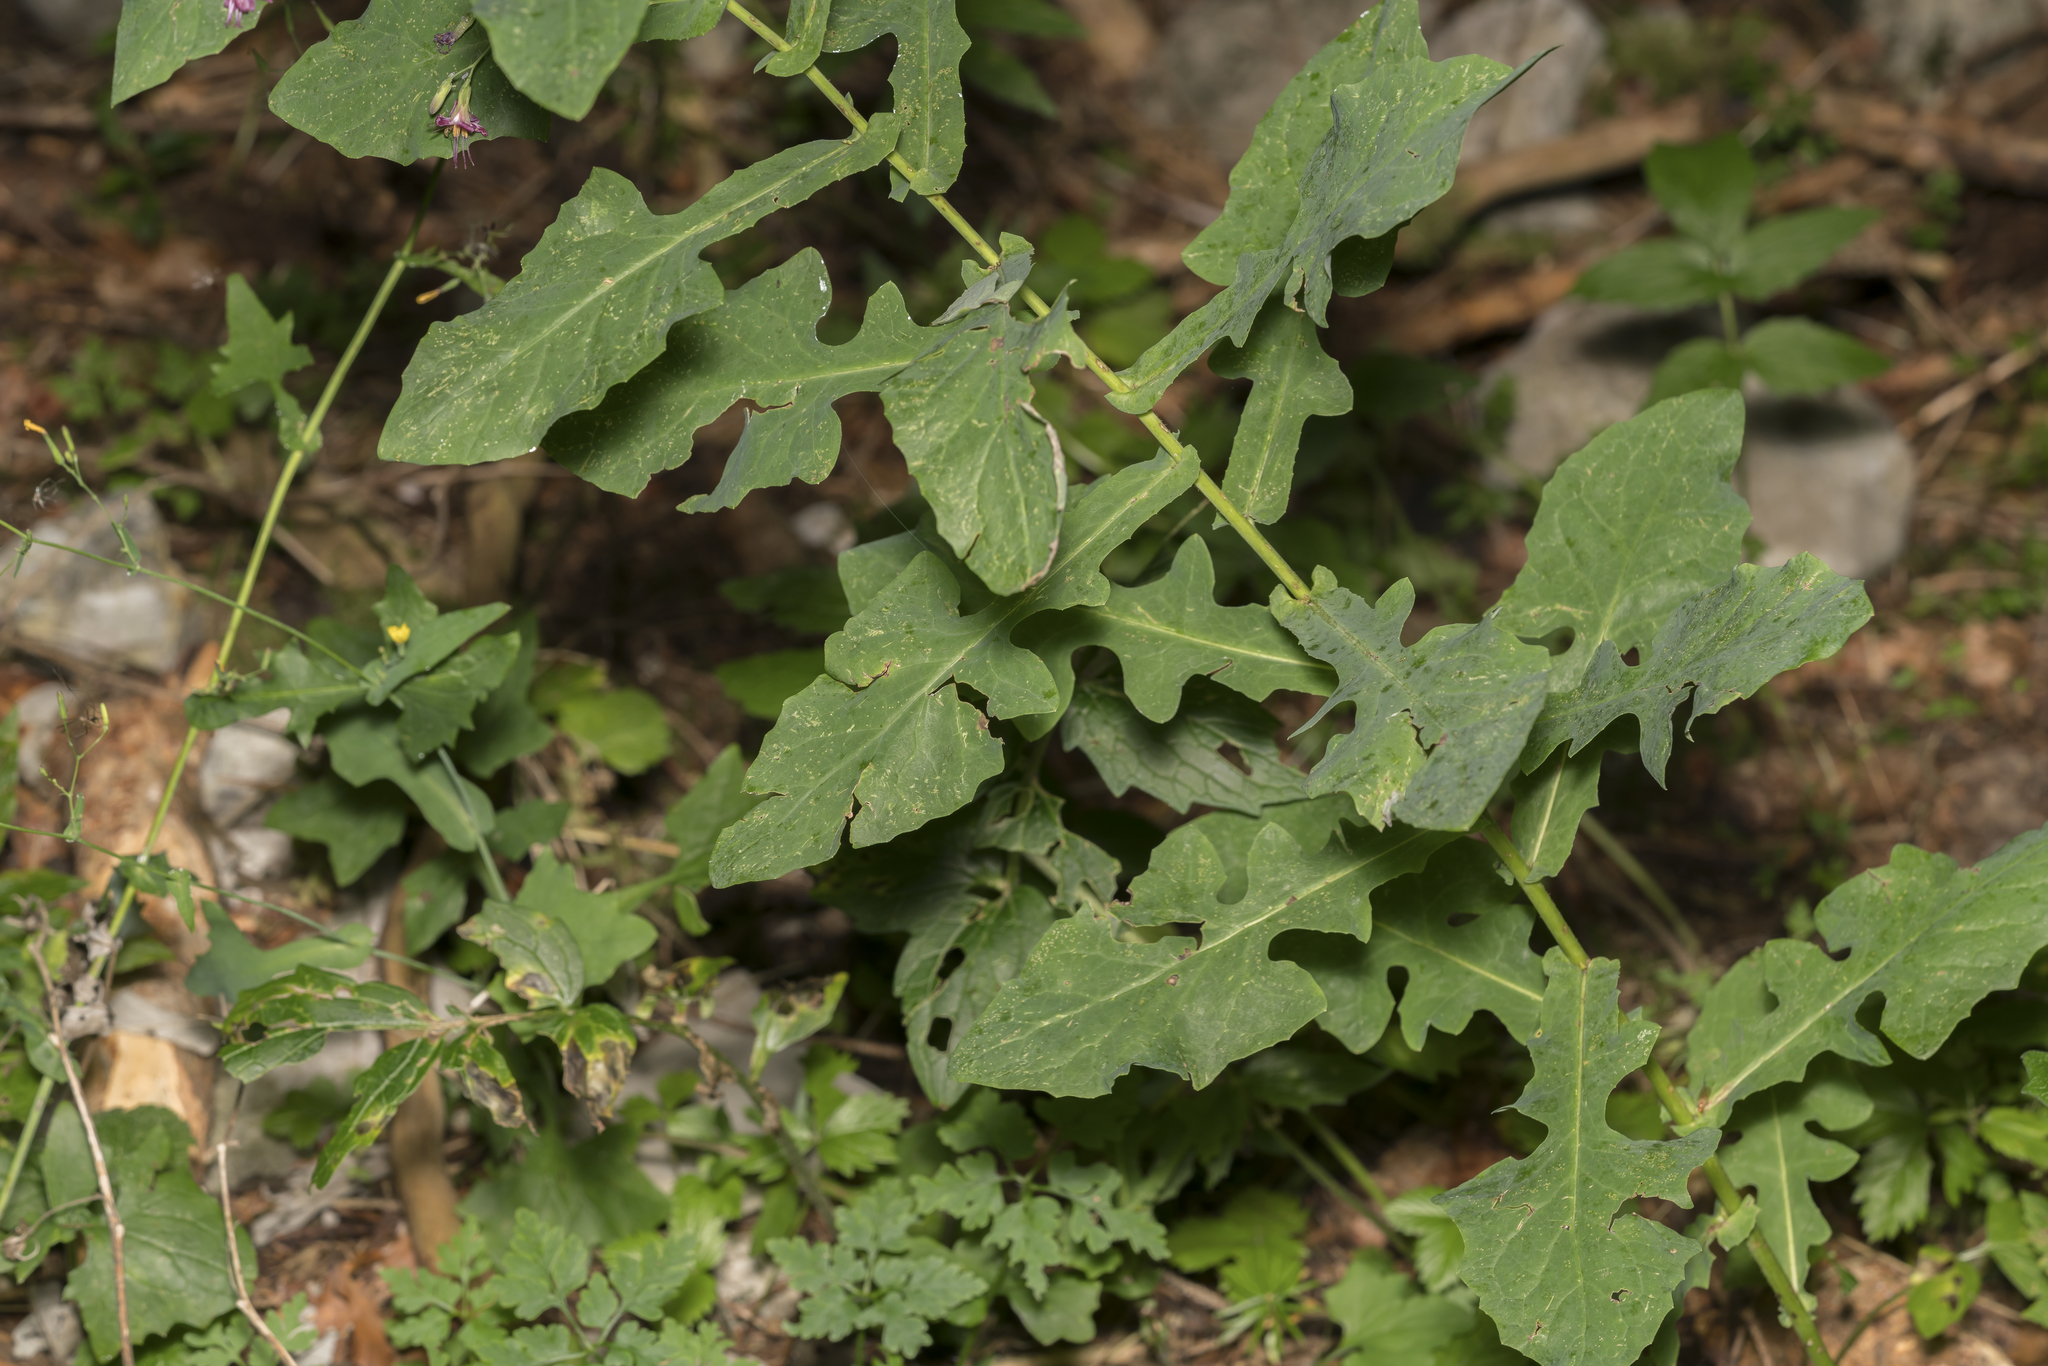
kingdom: Plantae
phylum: Tracheophyta
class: Magnoliopsida
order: Asterales
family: Asteraceae
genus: Prenanthes
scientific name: Prenanthes purpurea
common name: Purple lettuce
